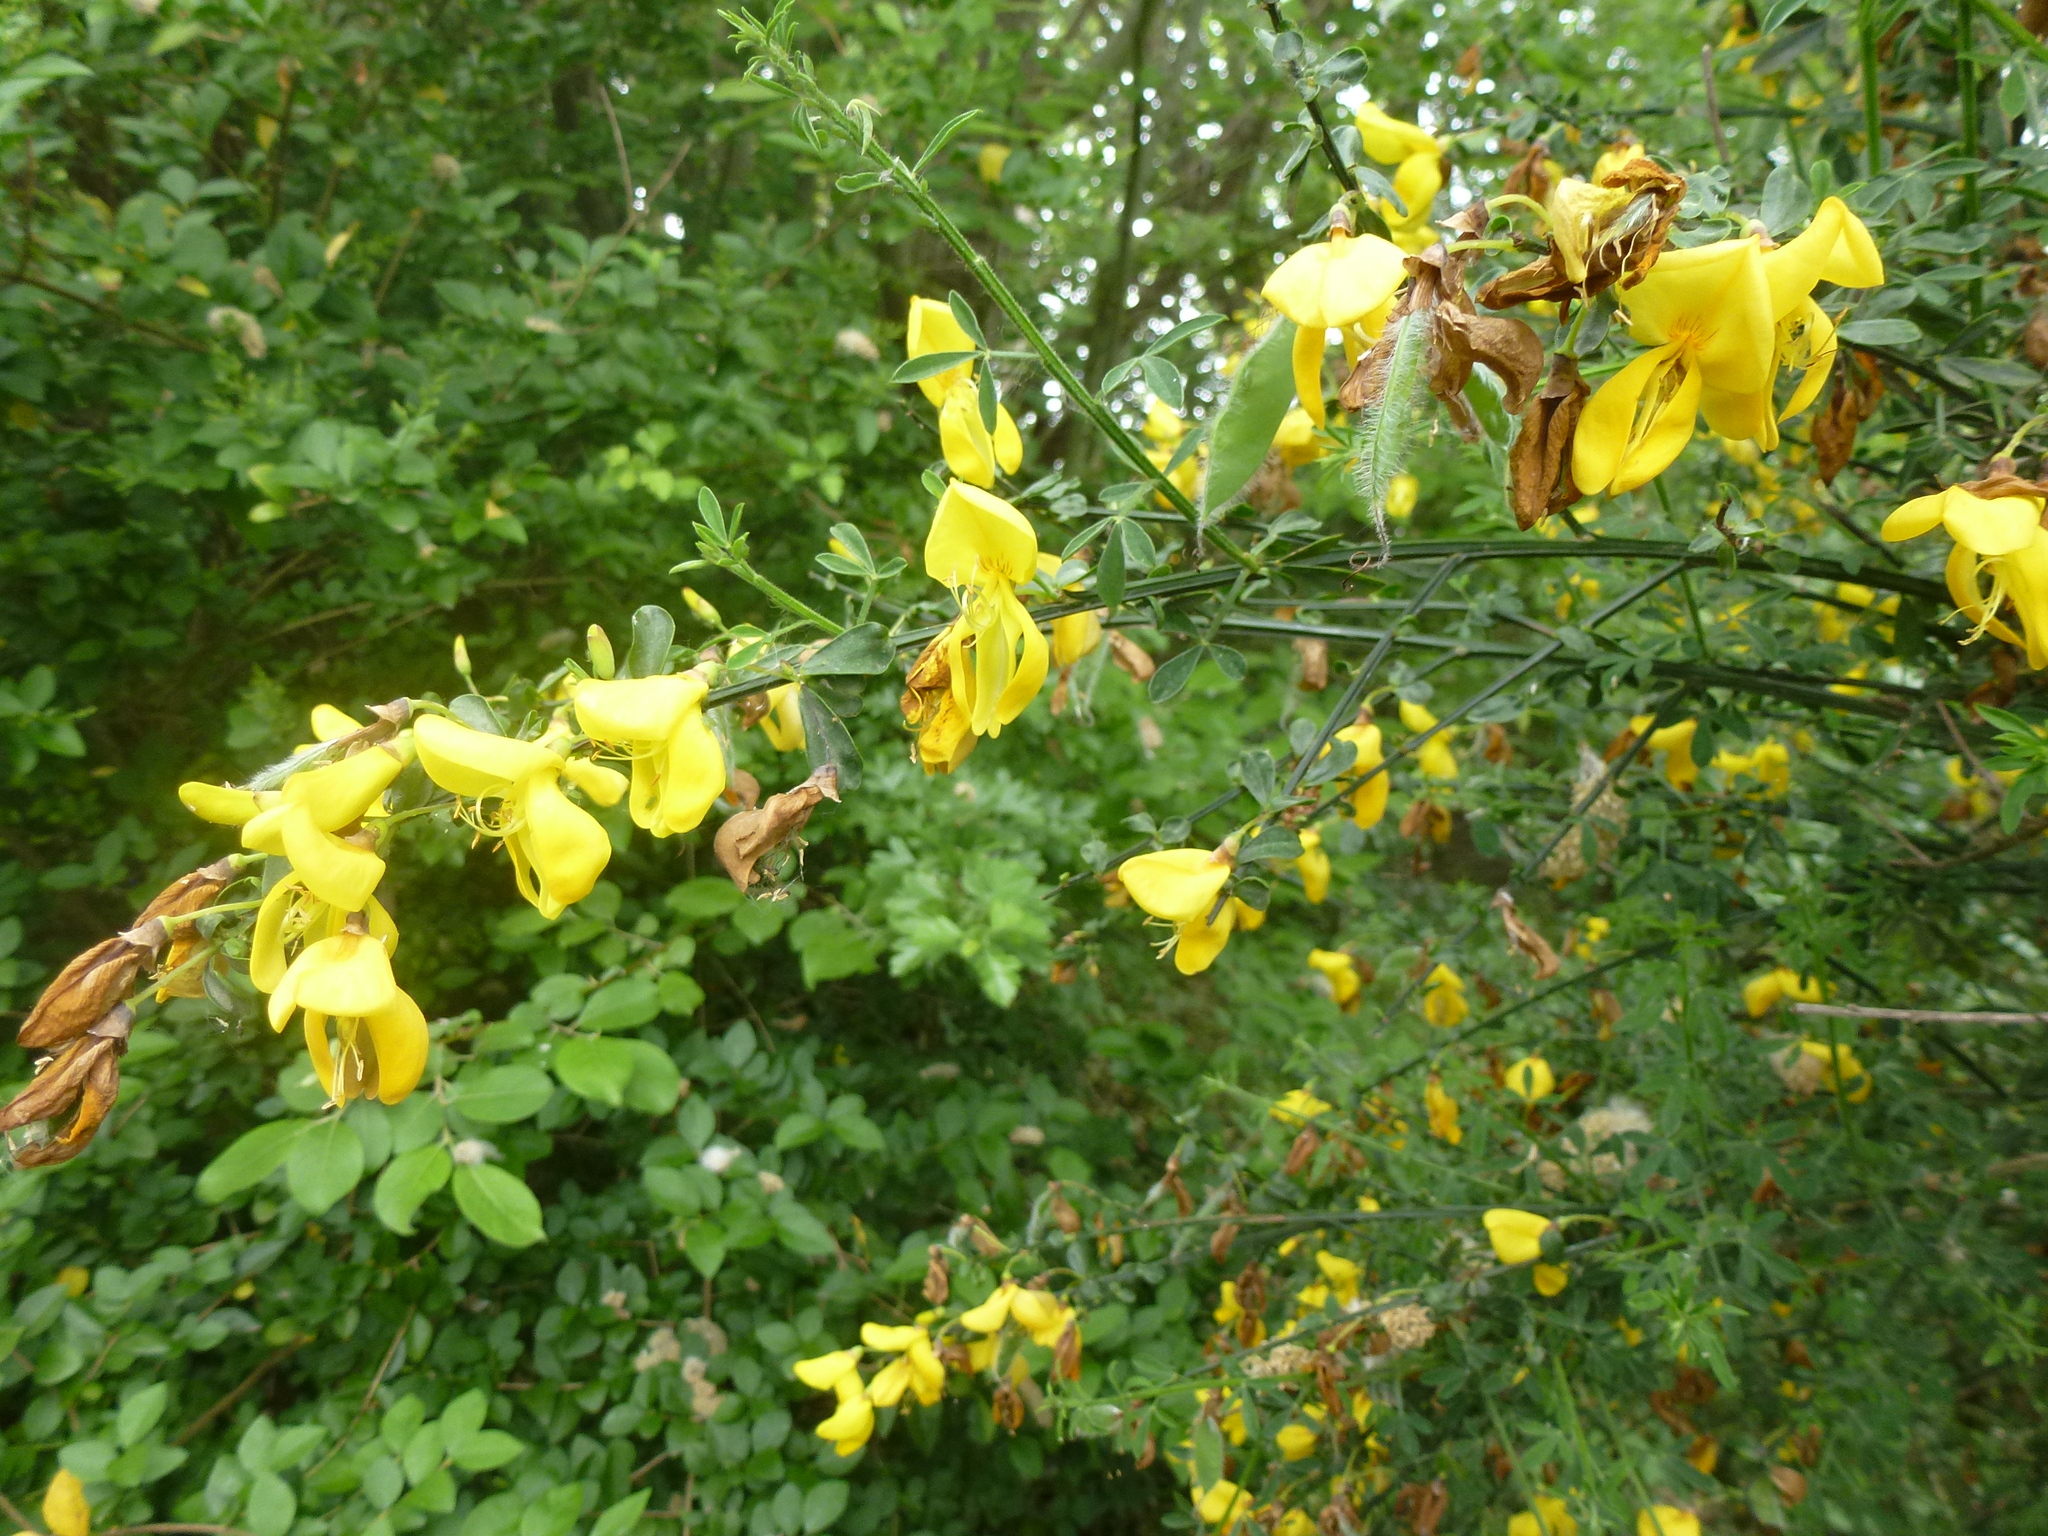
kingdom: Plantae
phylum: Tracheophyta
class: Magnoliopsida
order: Fabales
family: Fabaceae
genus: Cytisus
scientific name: Cytisus scoparius
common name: Scotch broom
